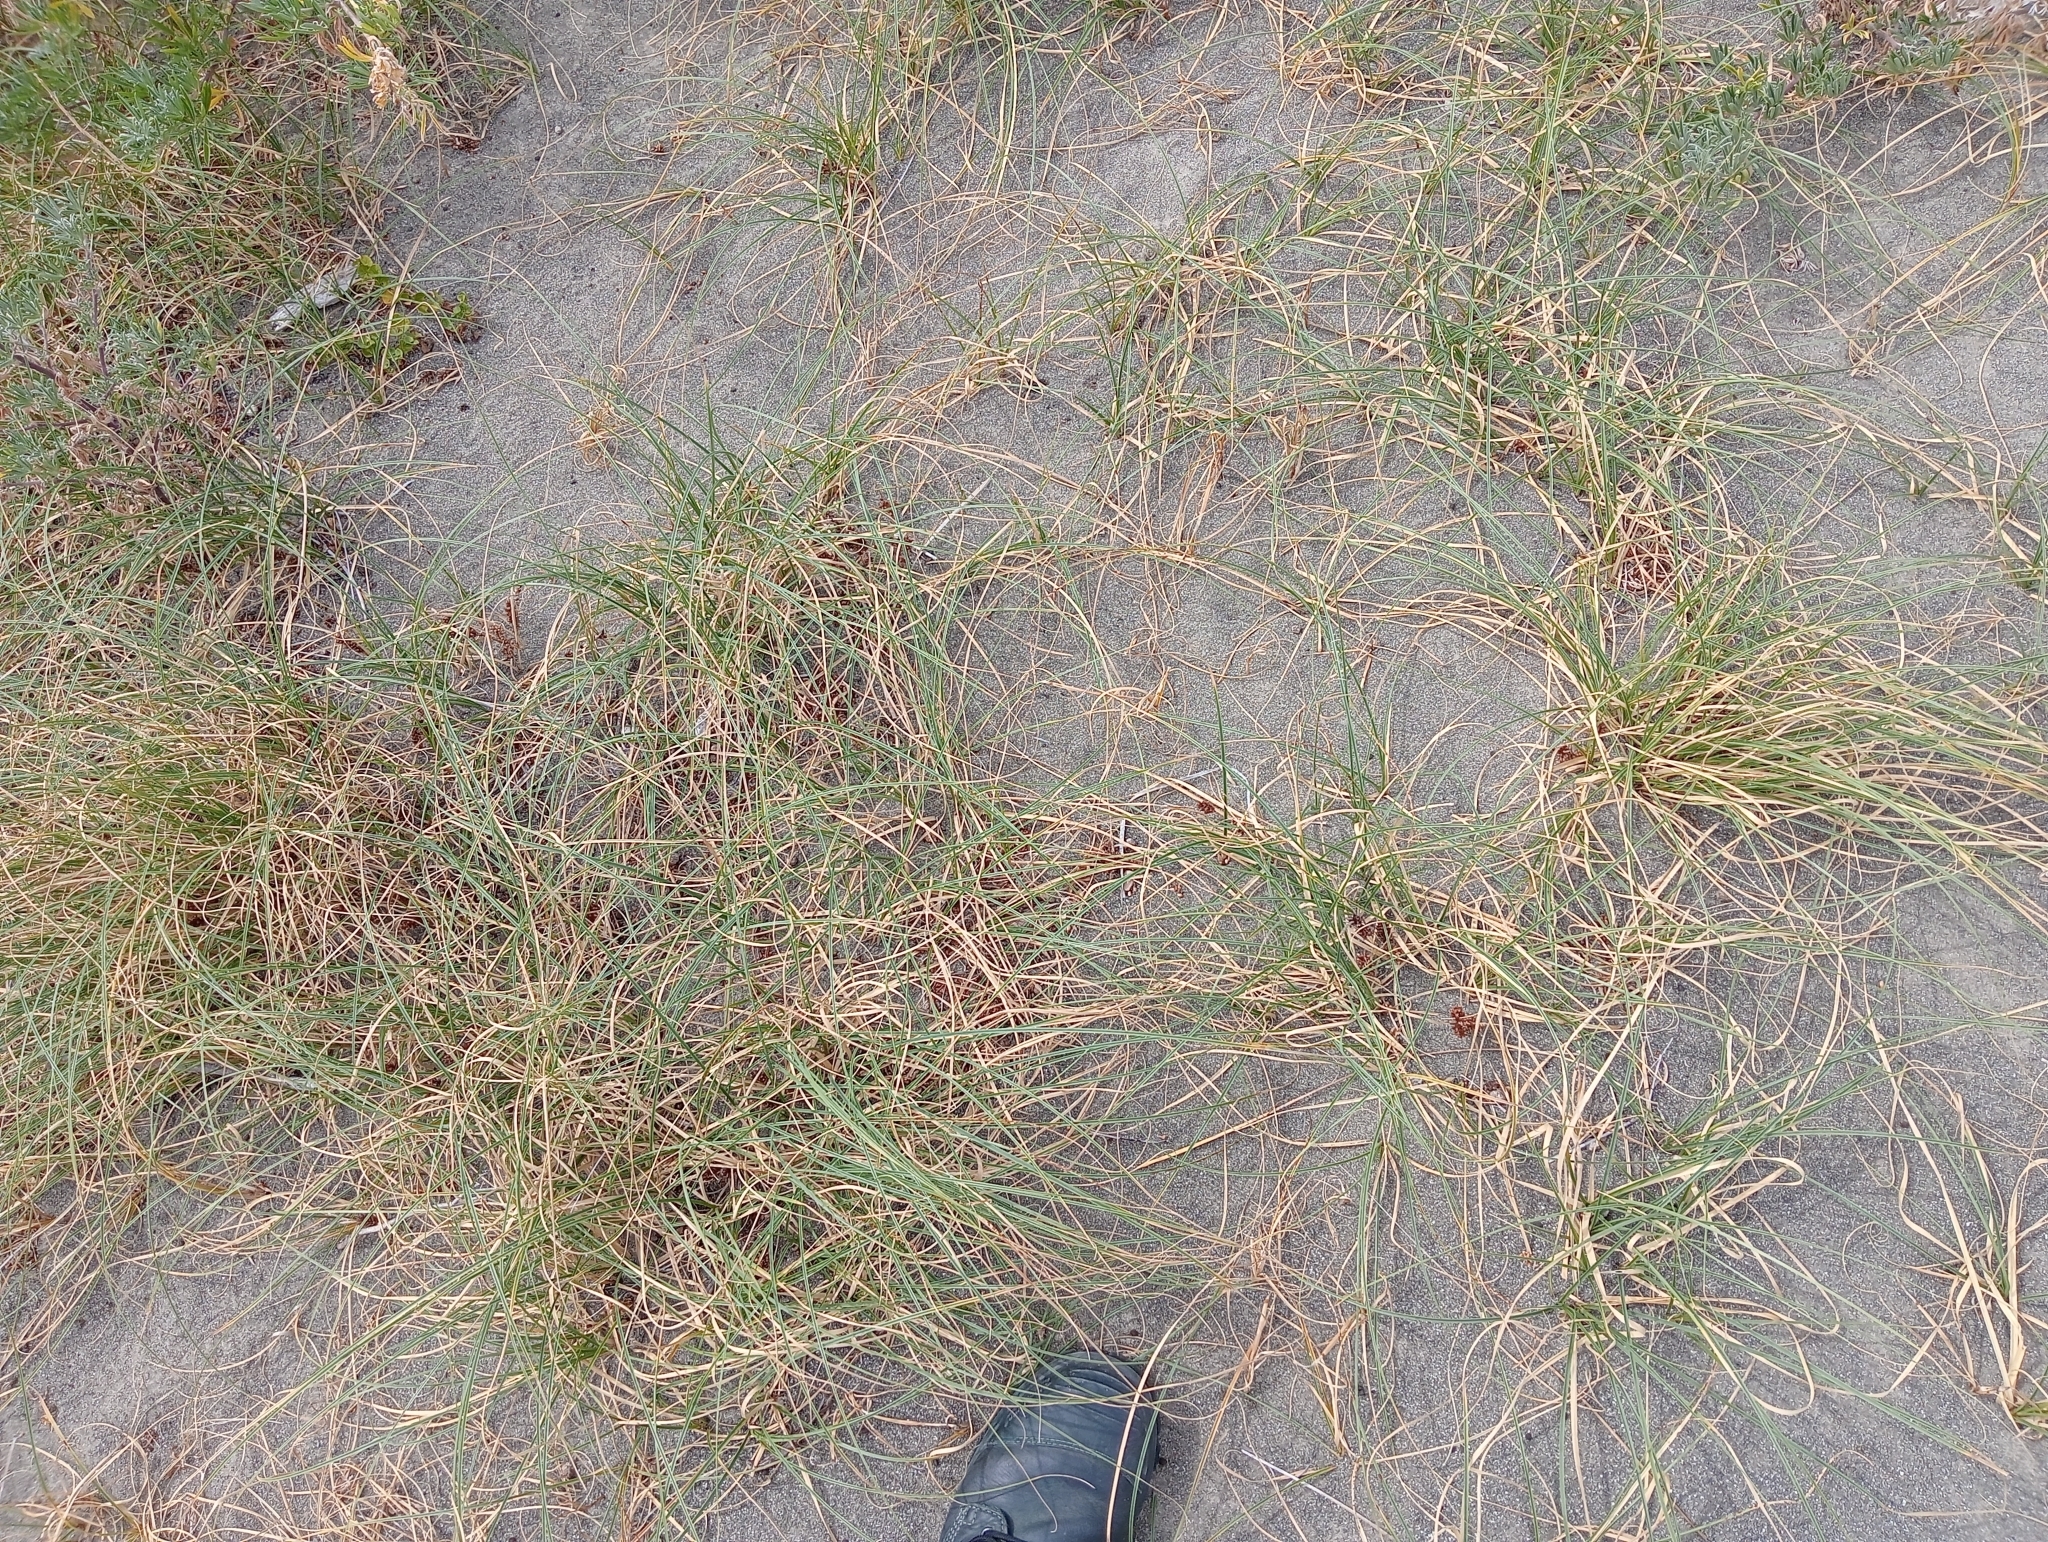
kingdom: Plantae
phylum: Tracheophyta
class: Liliopsida
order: Poales
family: Cyperaceae
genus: Carex
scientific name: Carex pumila
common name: Dwarf sedge
